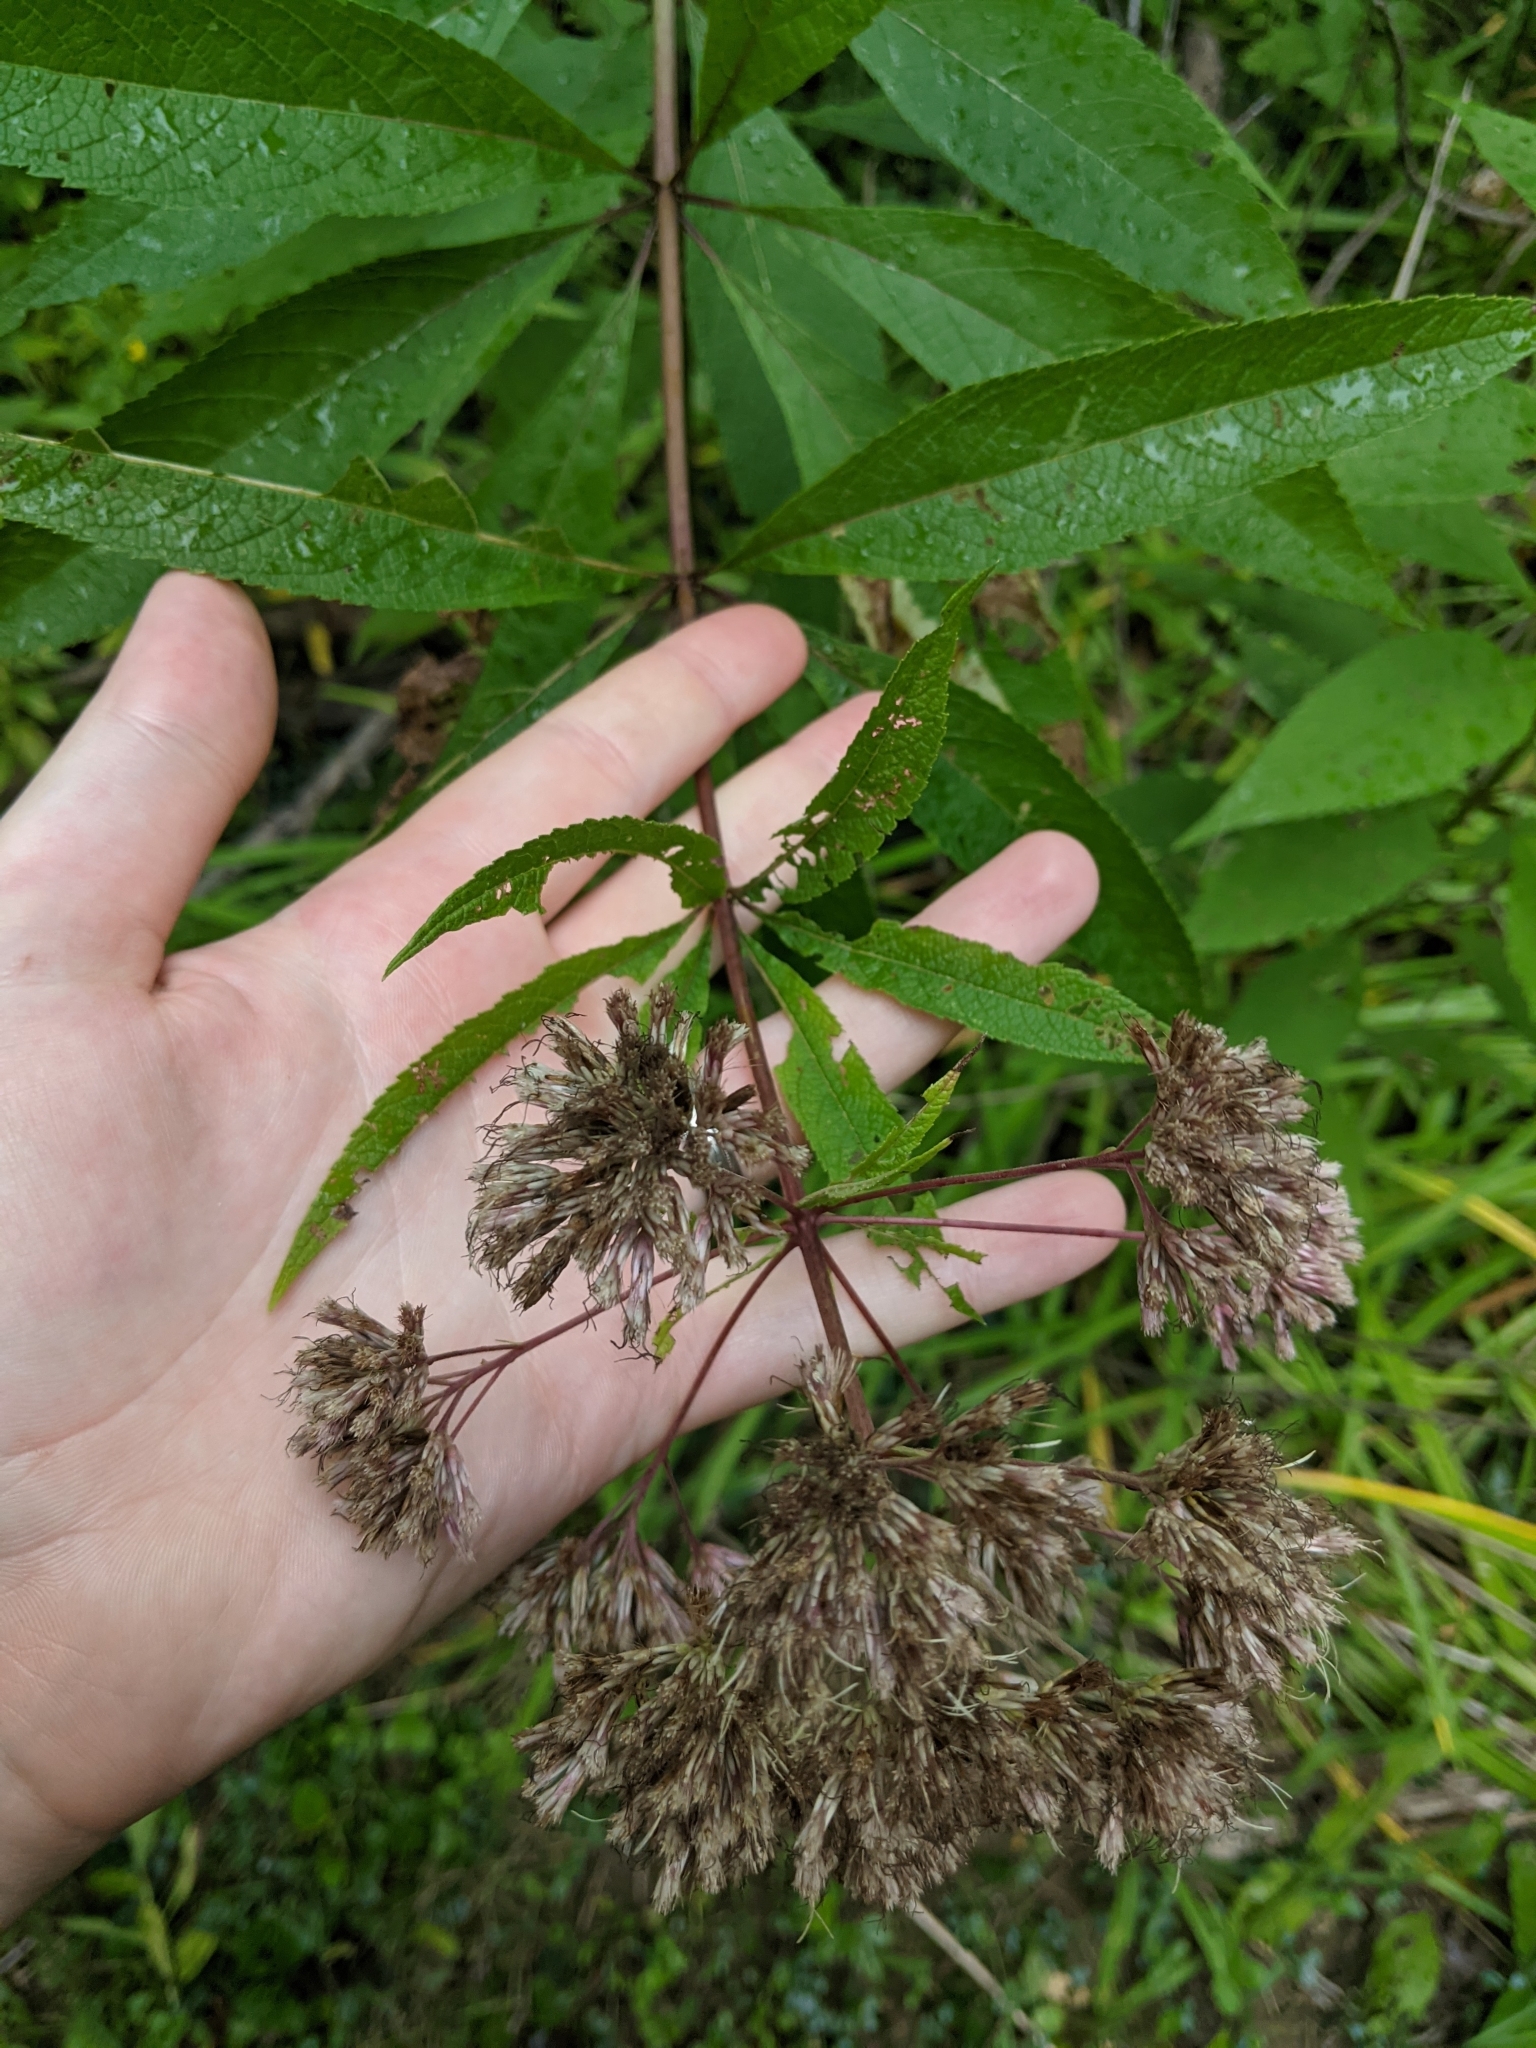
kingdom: Plantae
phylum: Tracheophyta
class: Magnoliopsida
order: Asterales
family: Asteraceae
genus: Eutrochium
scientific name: Eutrochium fistulosum
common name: Trumpetweed
